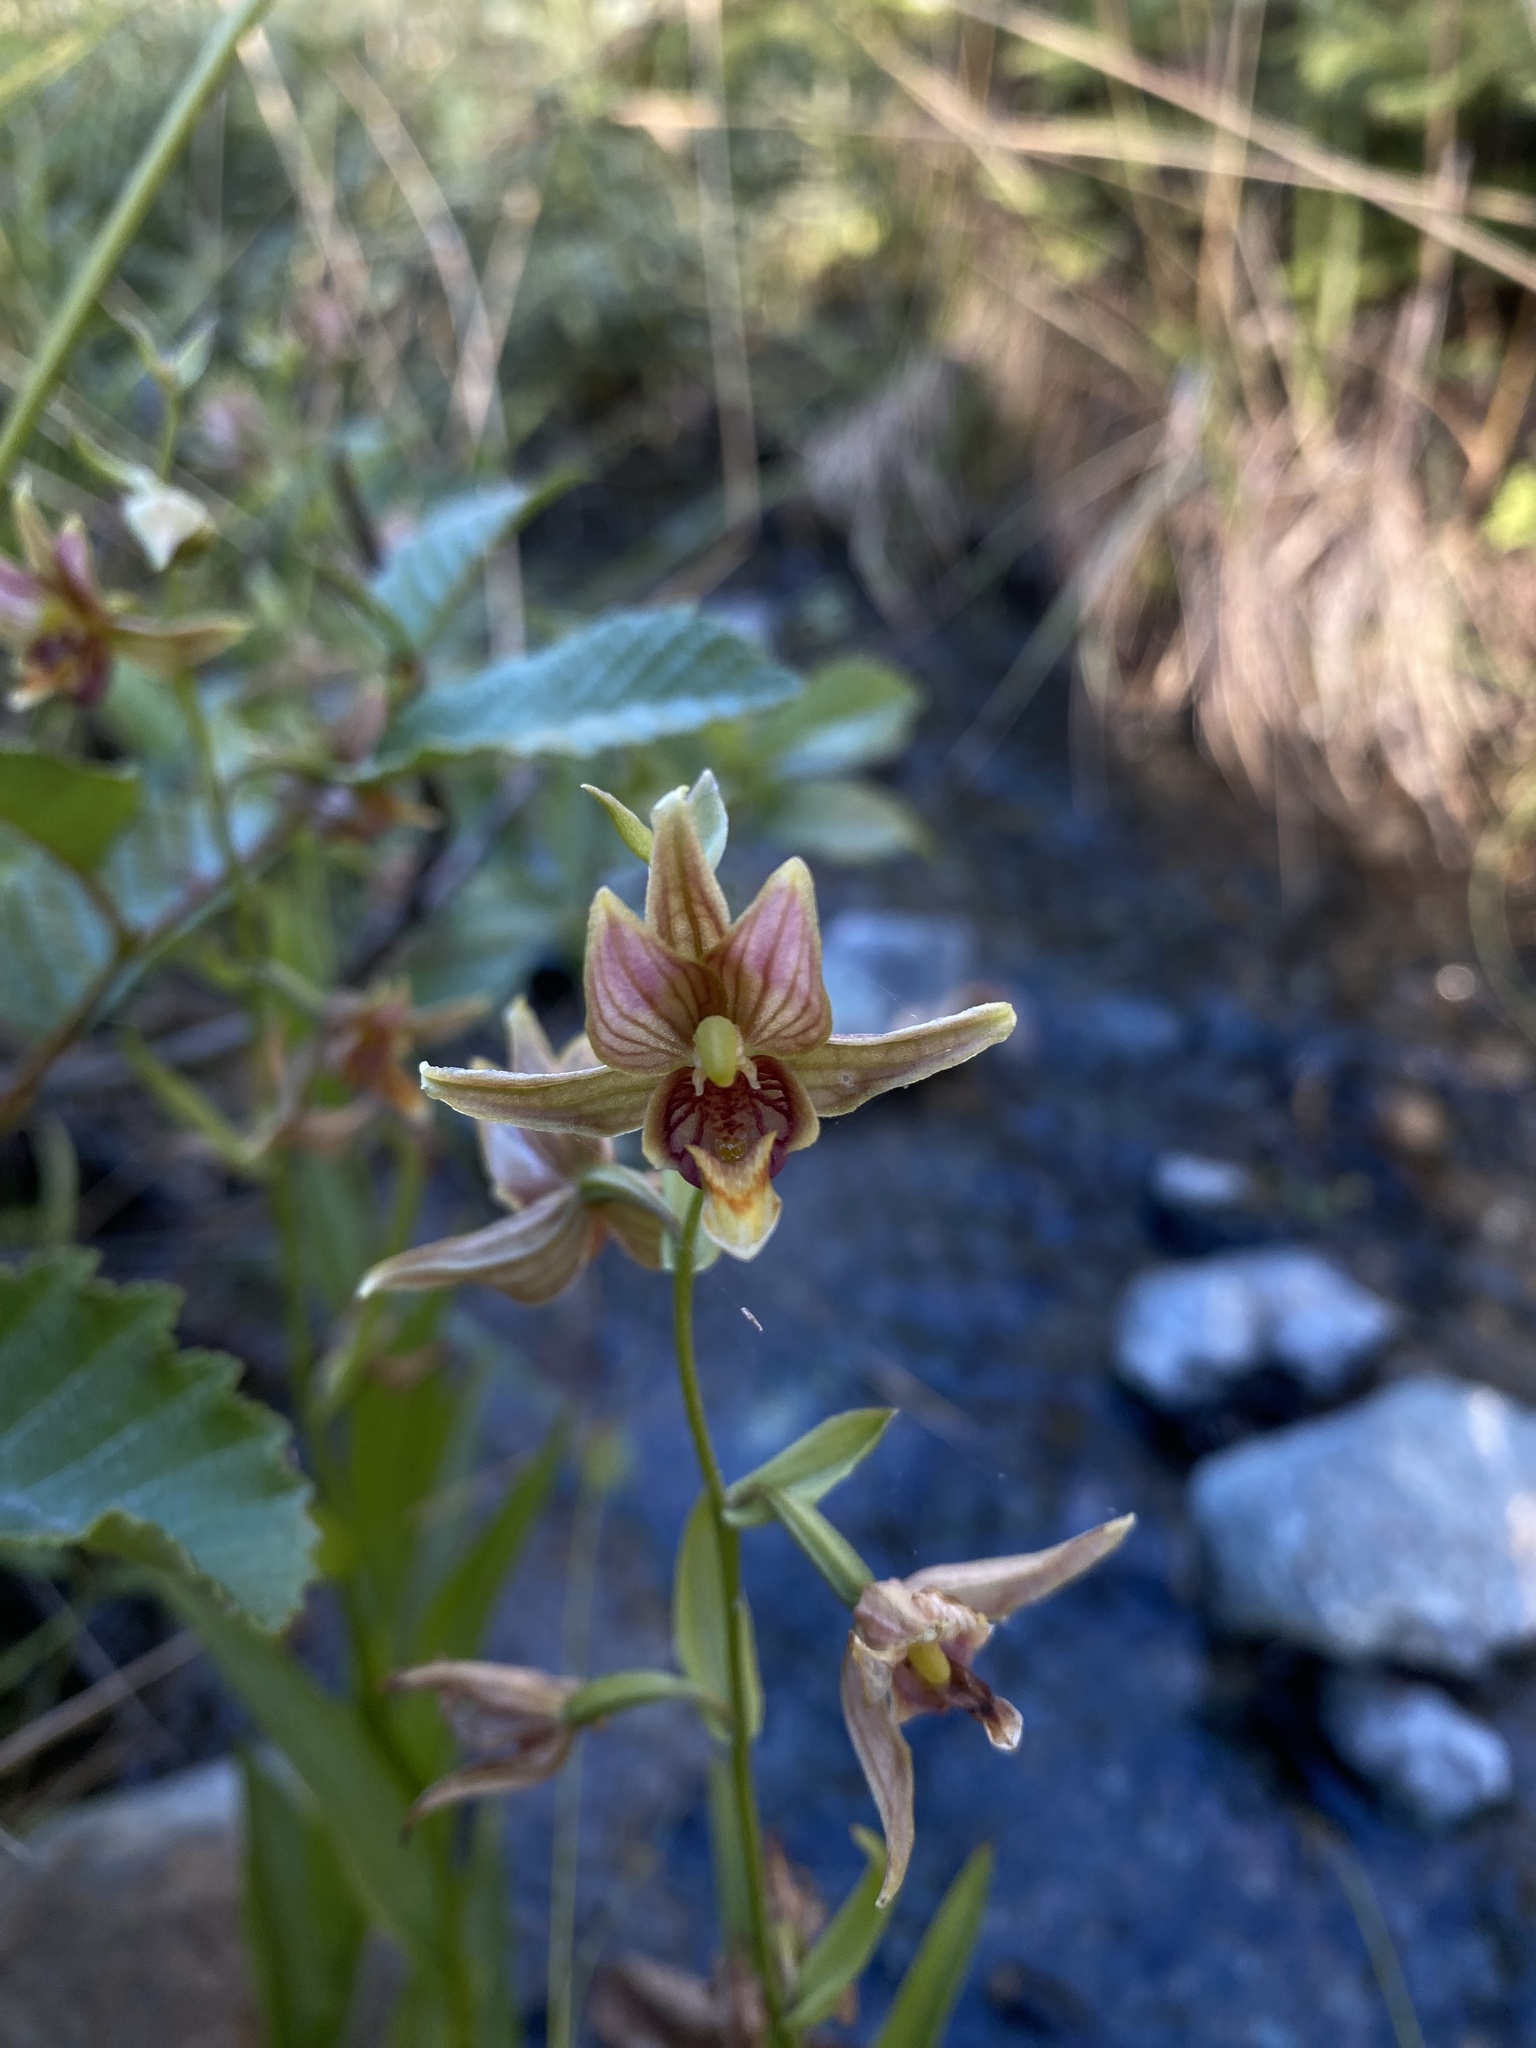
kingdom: Plantae
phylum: Tracheophyta
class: Liliopsida
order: Asparagales
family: Orchidaceae
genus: Epipactis
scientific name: Epipactis gigantea
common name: Chatterbox
